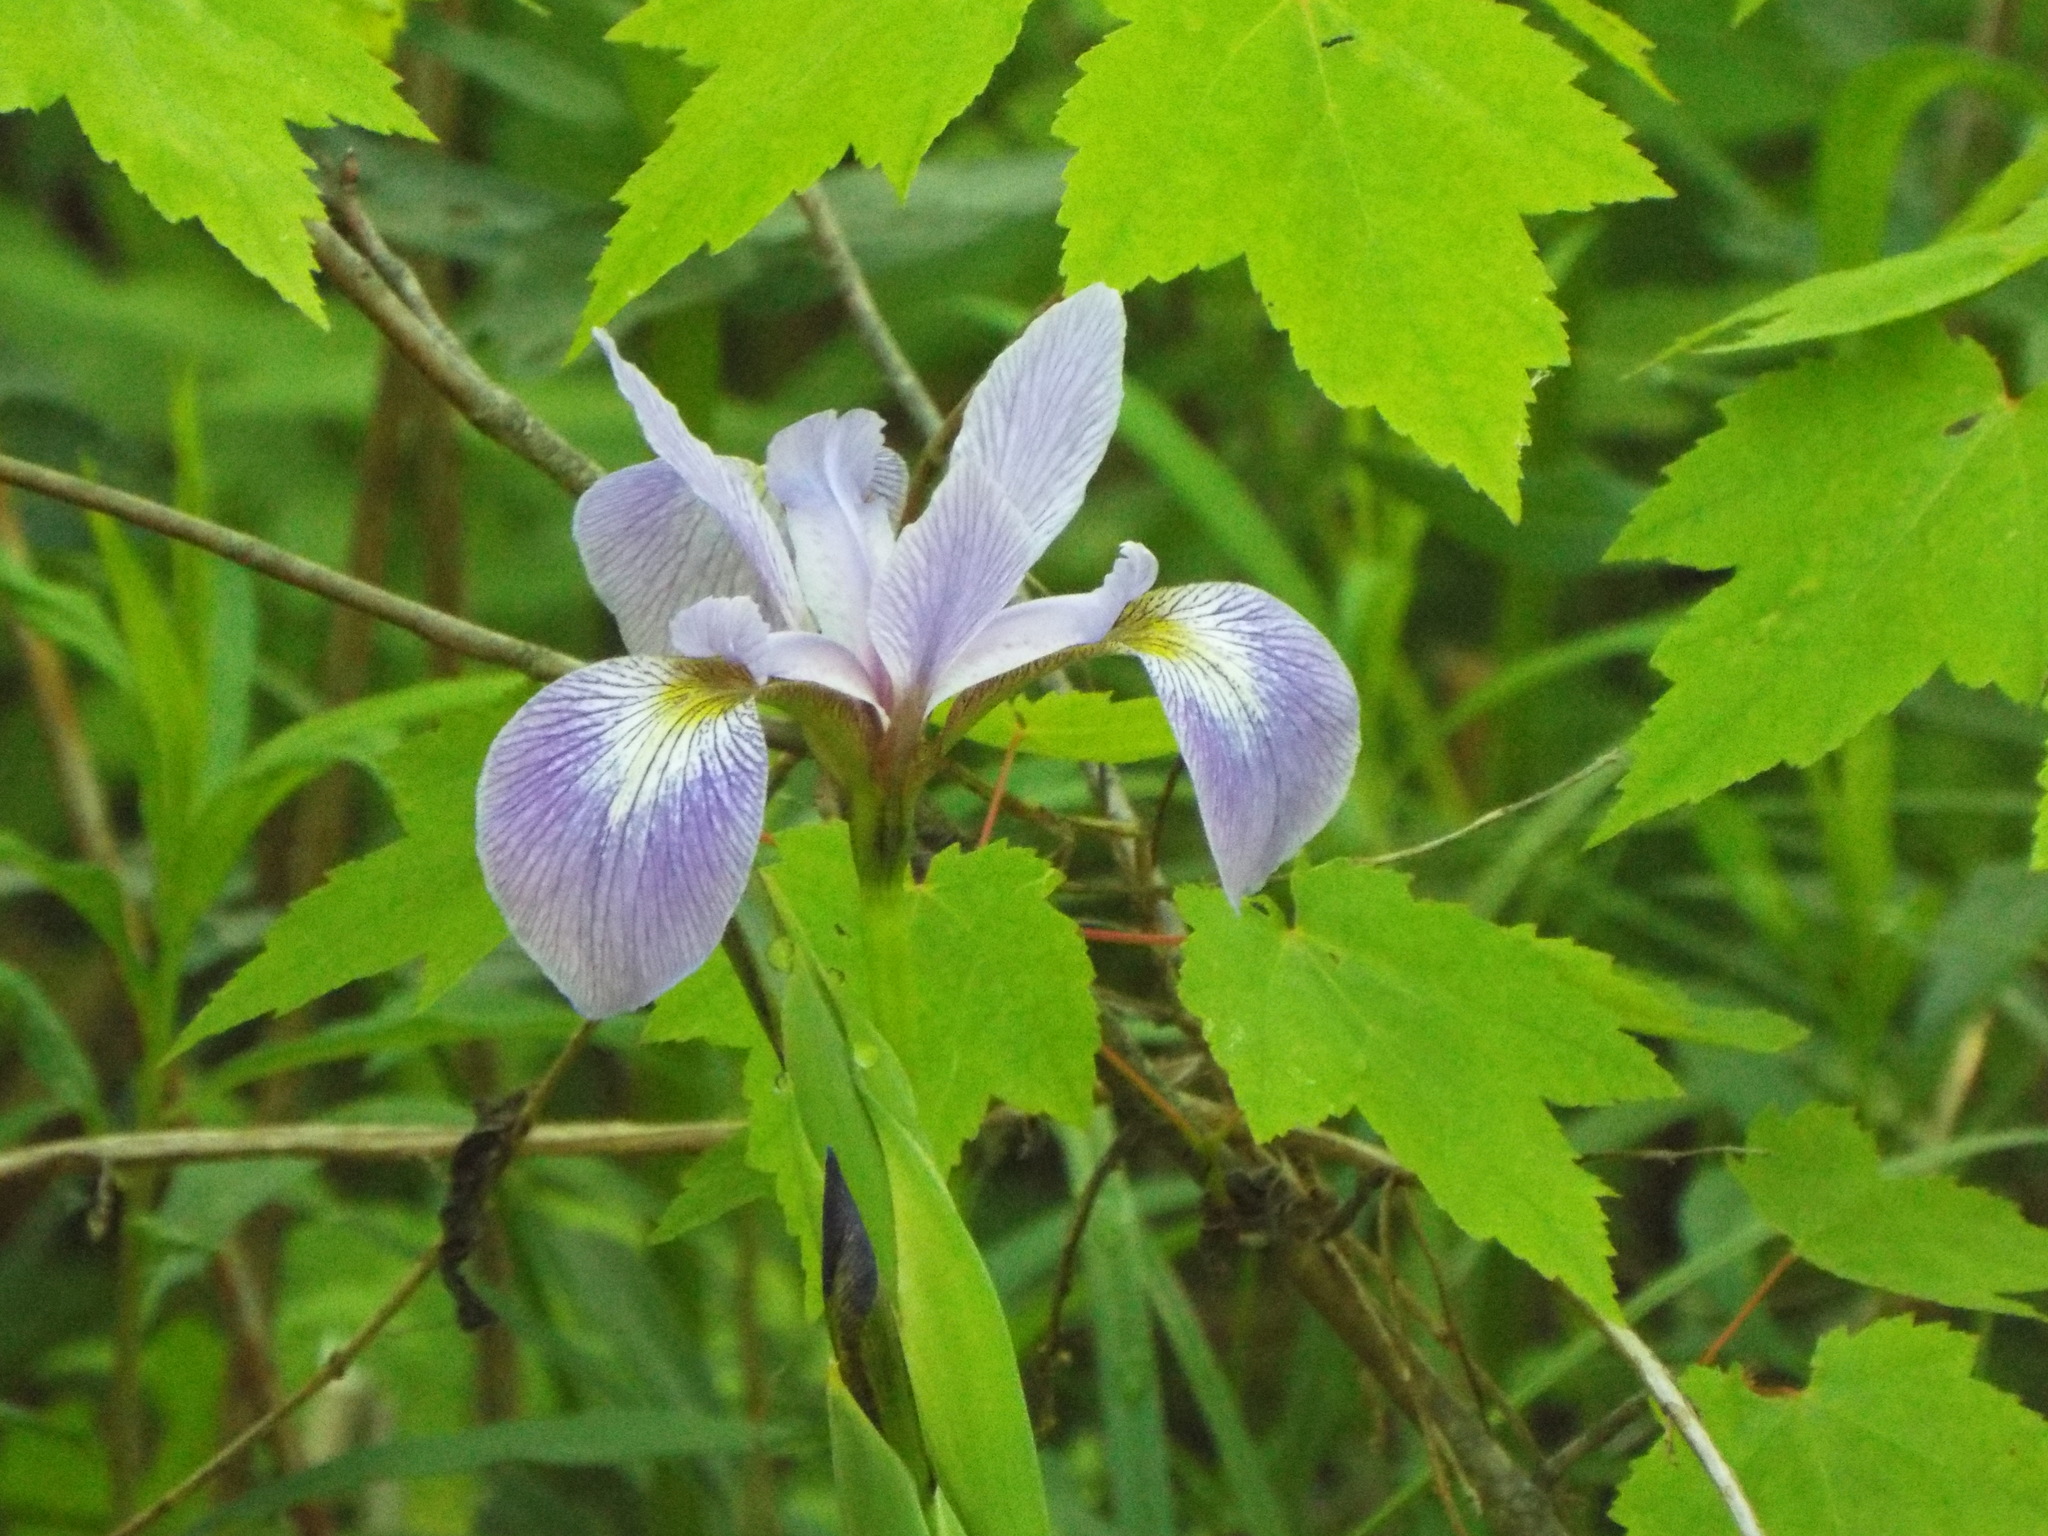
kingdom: Plantae
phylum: Tracheophyta
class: Liliopsida
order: Asparagales
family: Iridaceae
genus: Iris
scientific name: Iris versicolor
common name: Purple iris
